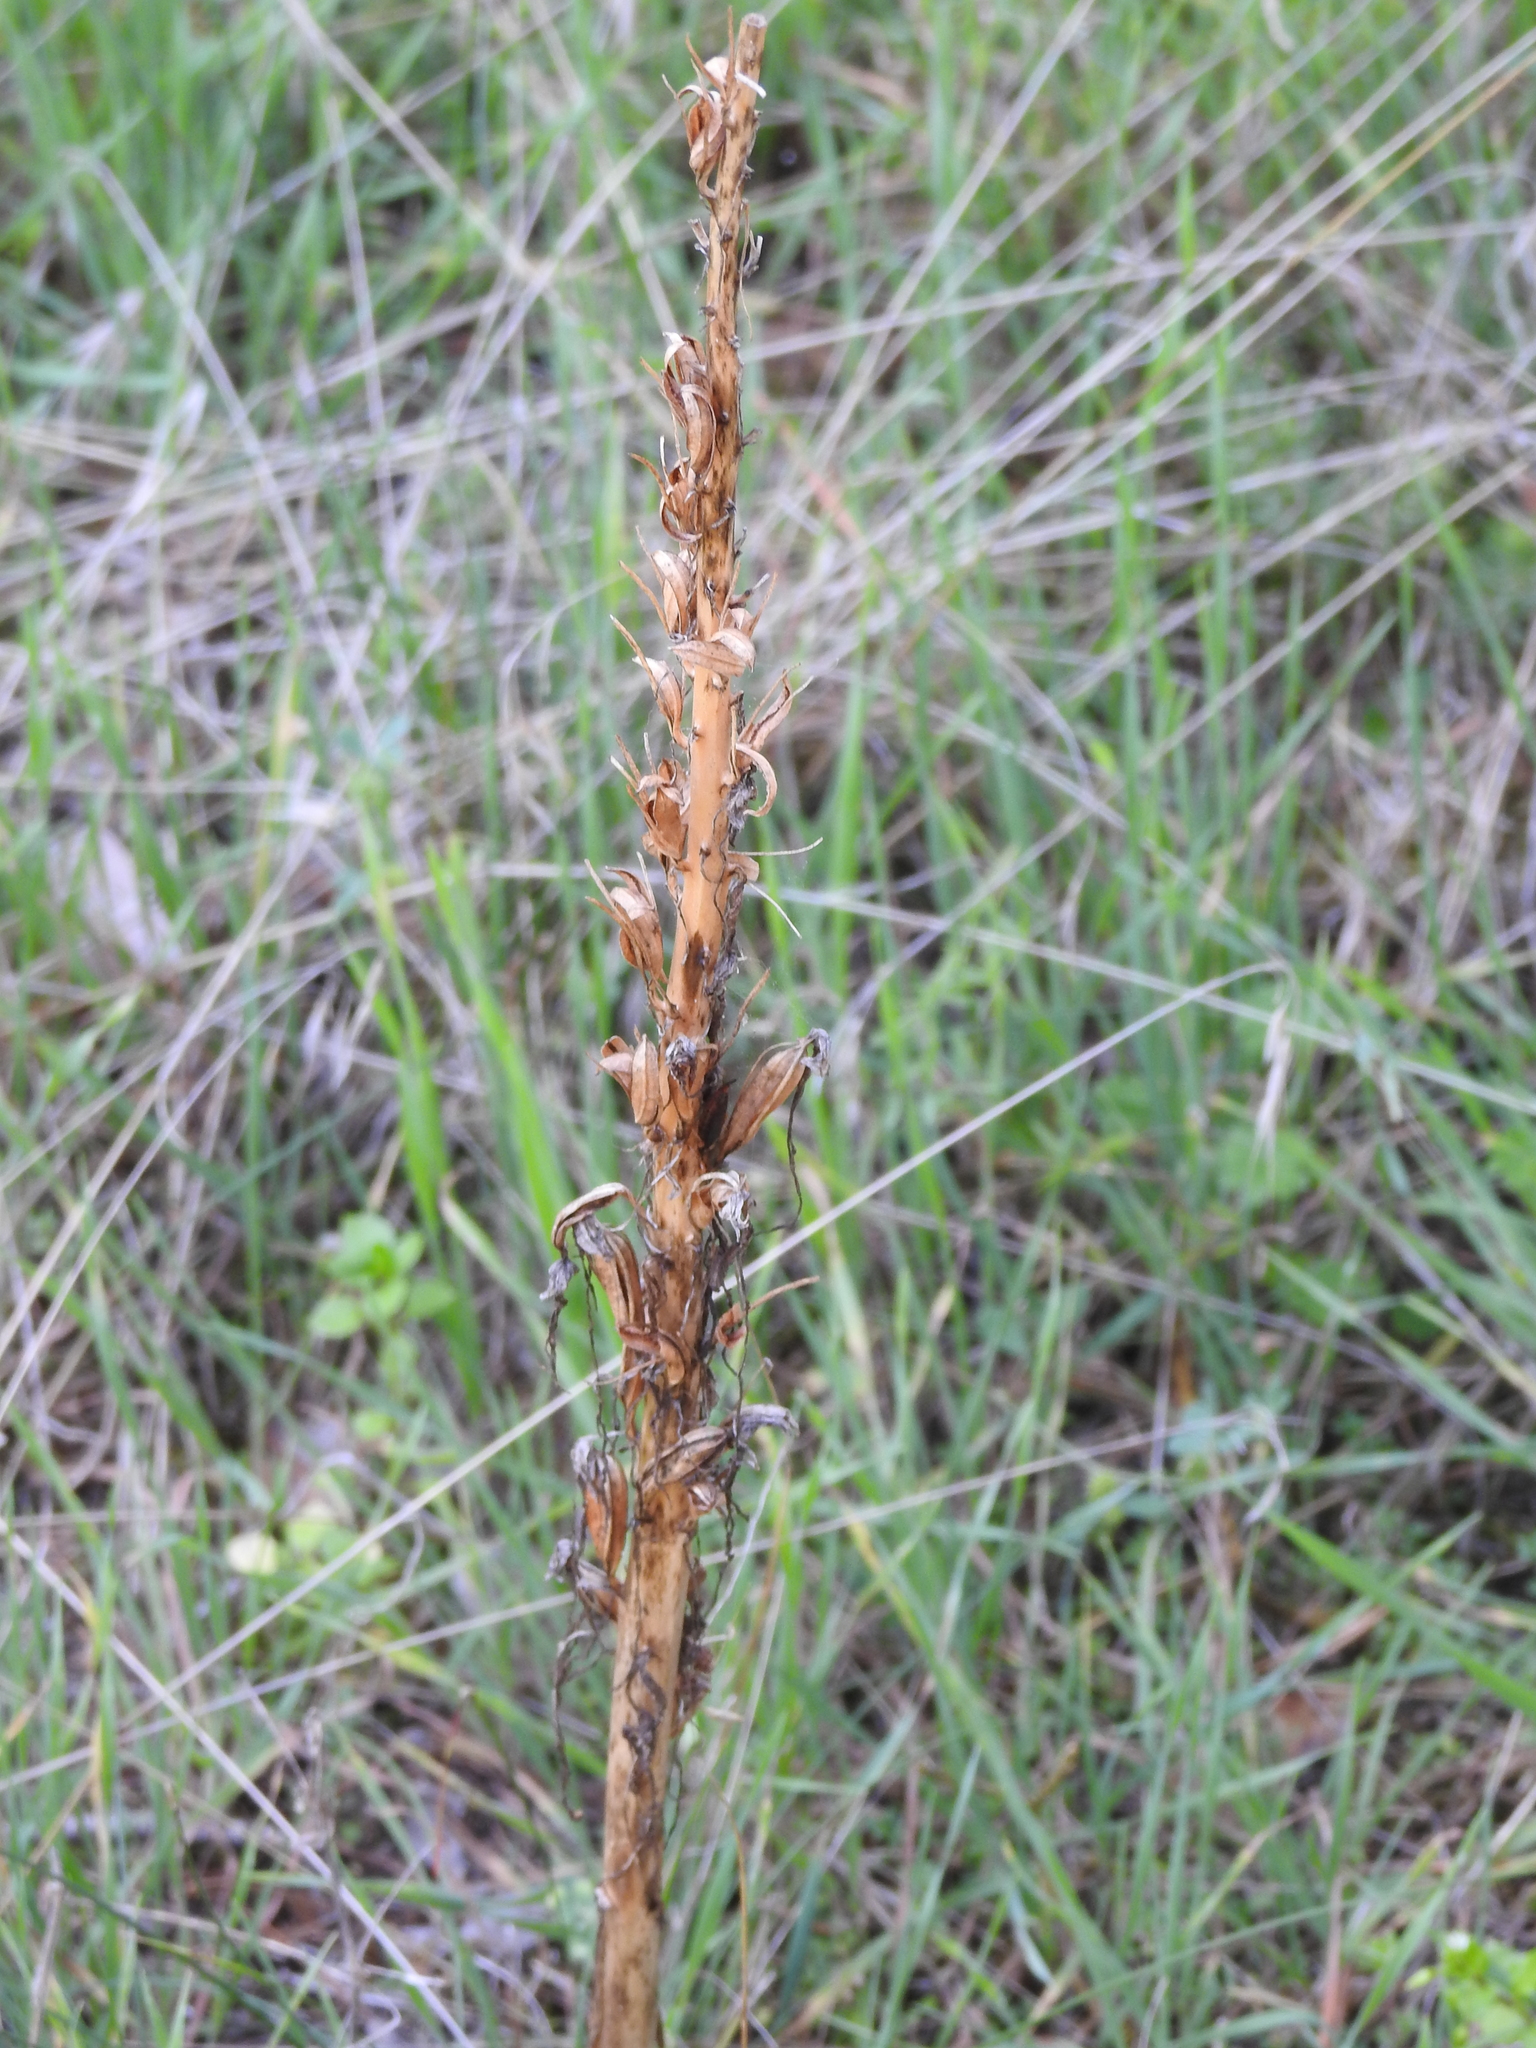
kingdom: Plantae
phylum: Tracheophyta
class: Liliopsida
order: Asparagales
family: Orchidaceae
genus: Himantoglossum
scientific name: Himantoglossum hircinum
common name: Lizard orchid
